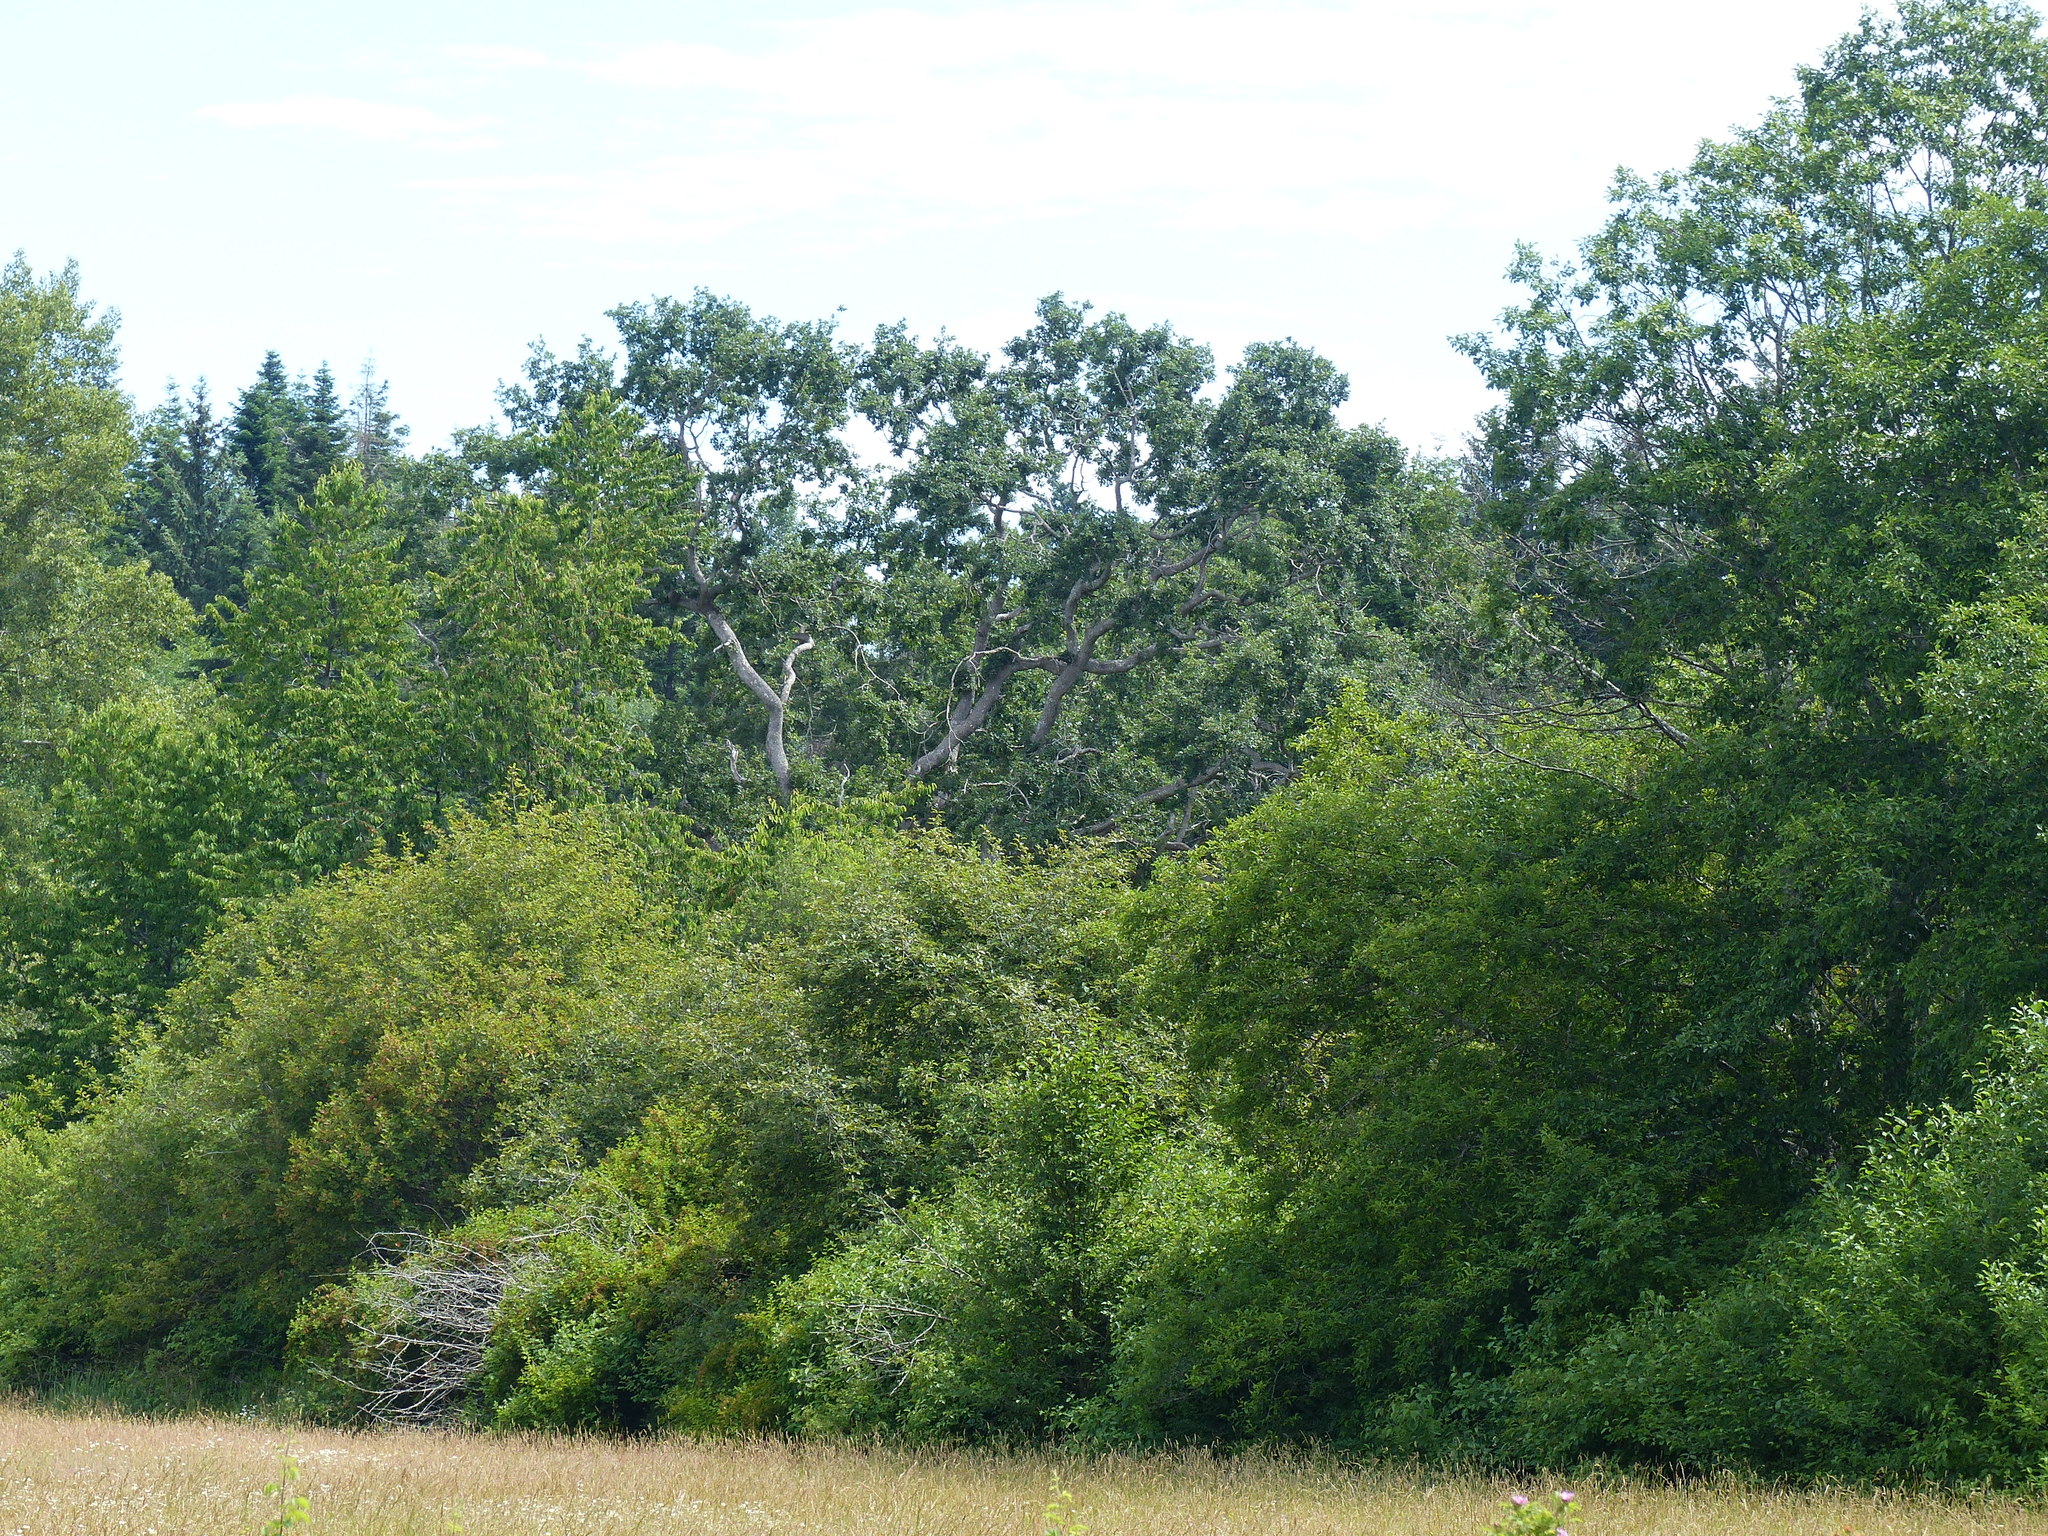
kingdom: Plantae
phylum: Tracheophyta
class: Magnoliopsida
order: Fagales
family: Fagaceae
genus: Quercus
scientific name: Quercus garryana
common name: Garry oak
